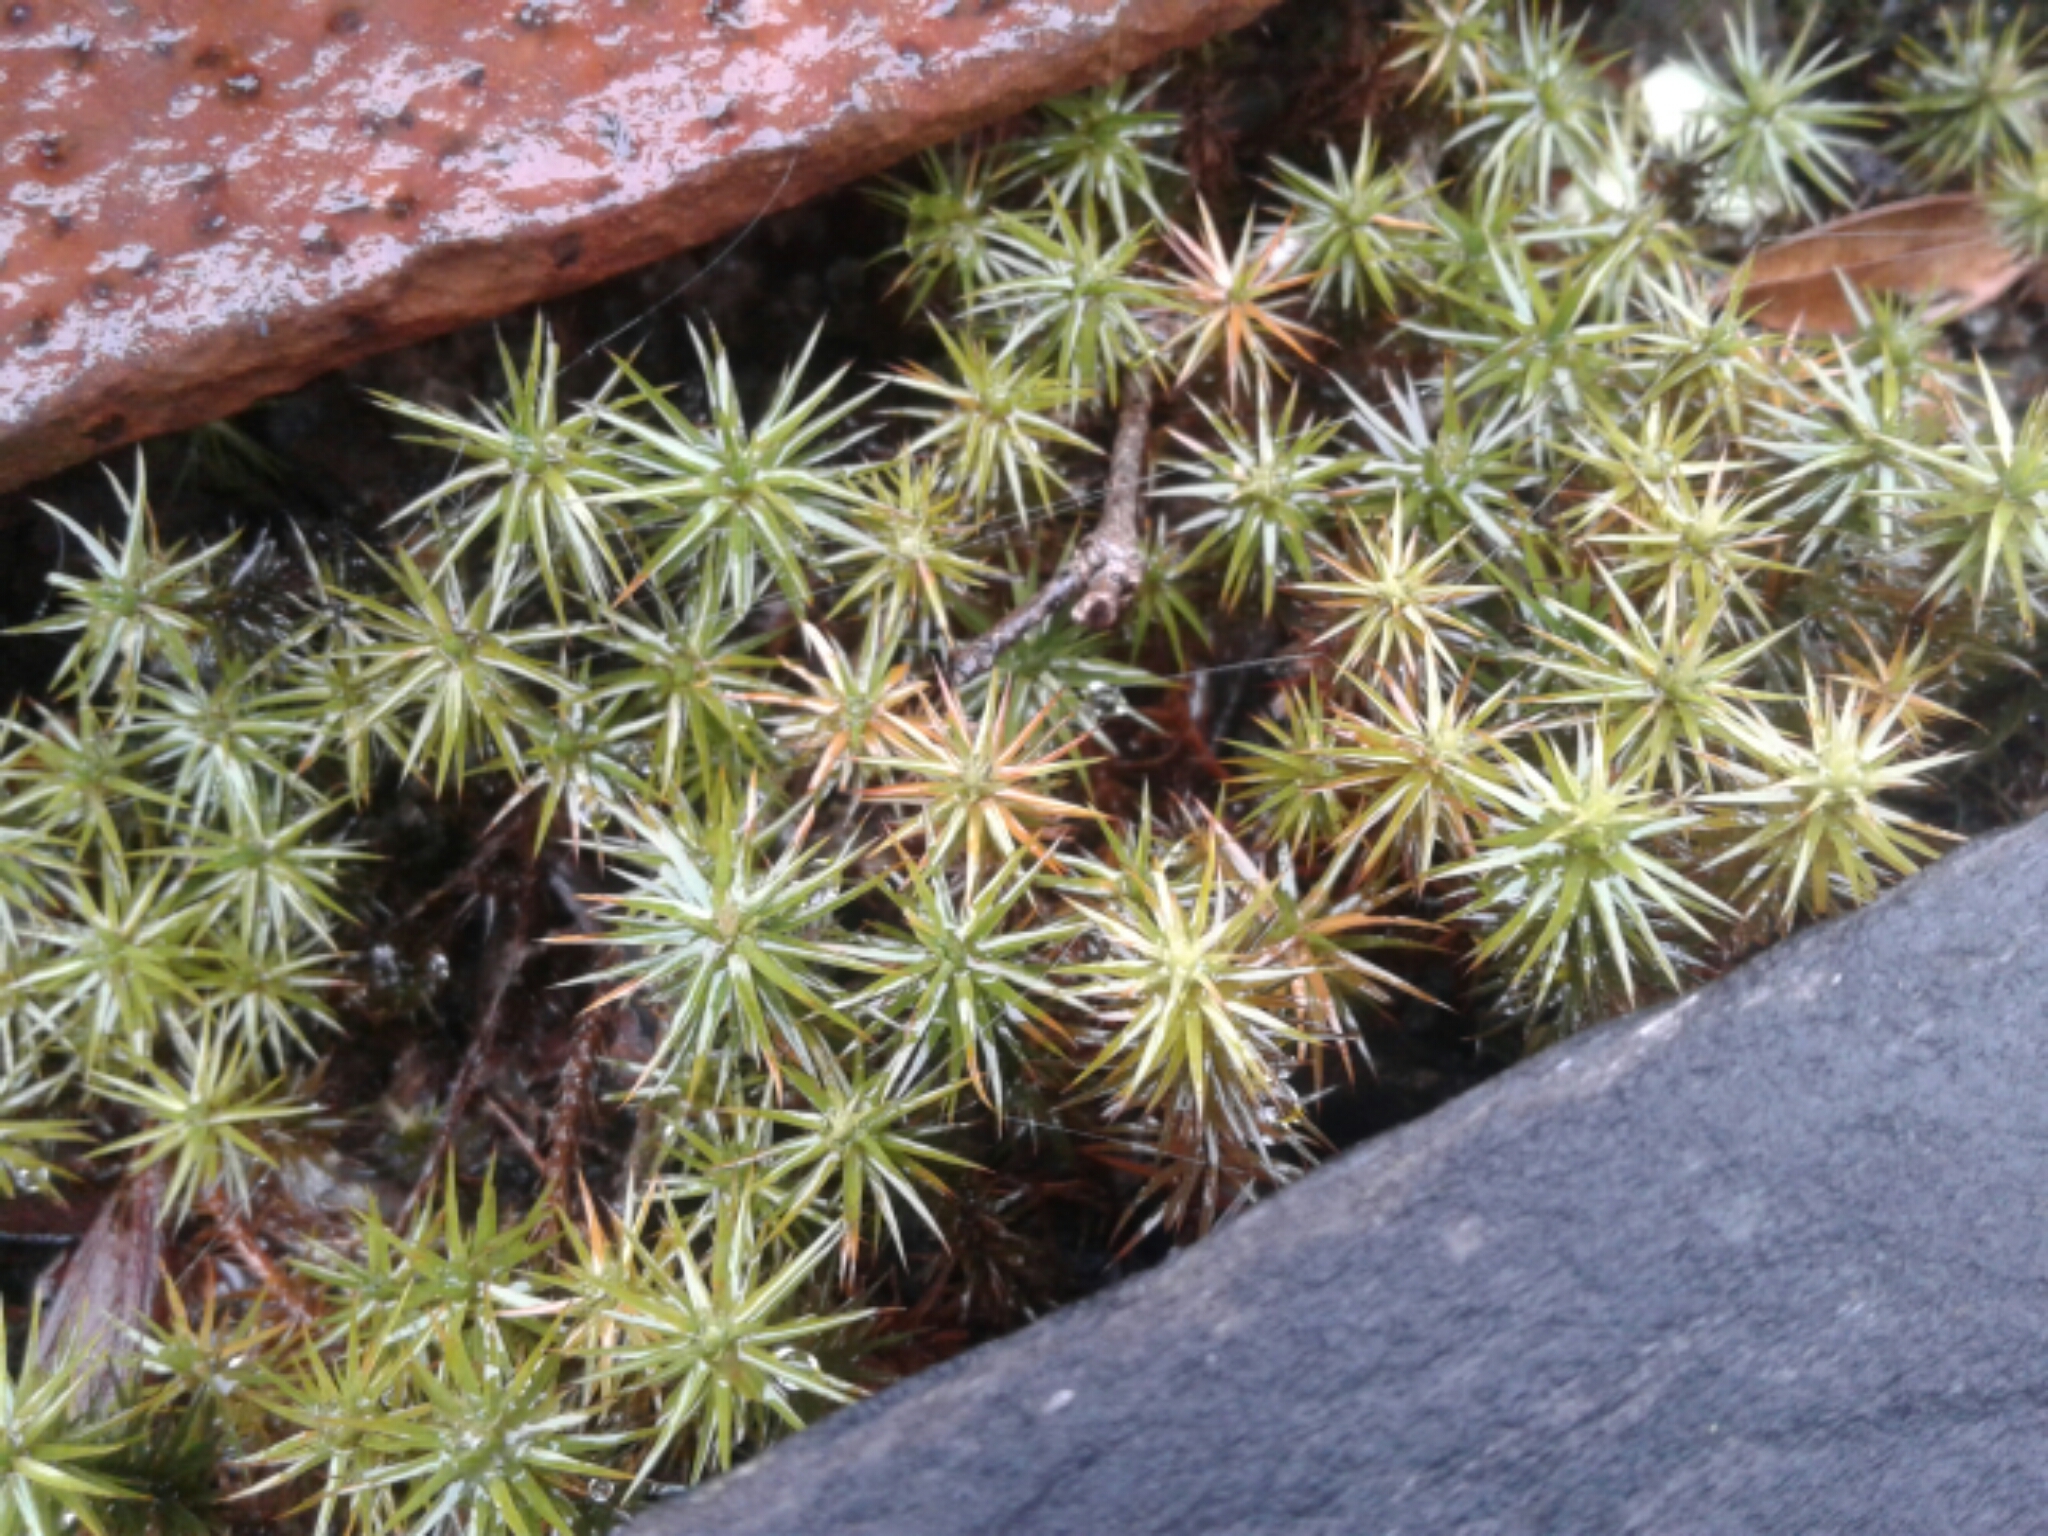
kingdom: Plantae
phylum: Bryophyta
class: Polytrichopsida
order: Polytrichales
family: Polytrichaceae
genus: Polytrichum
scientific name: Polytrichum
